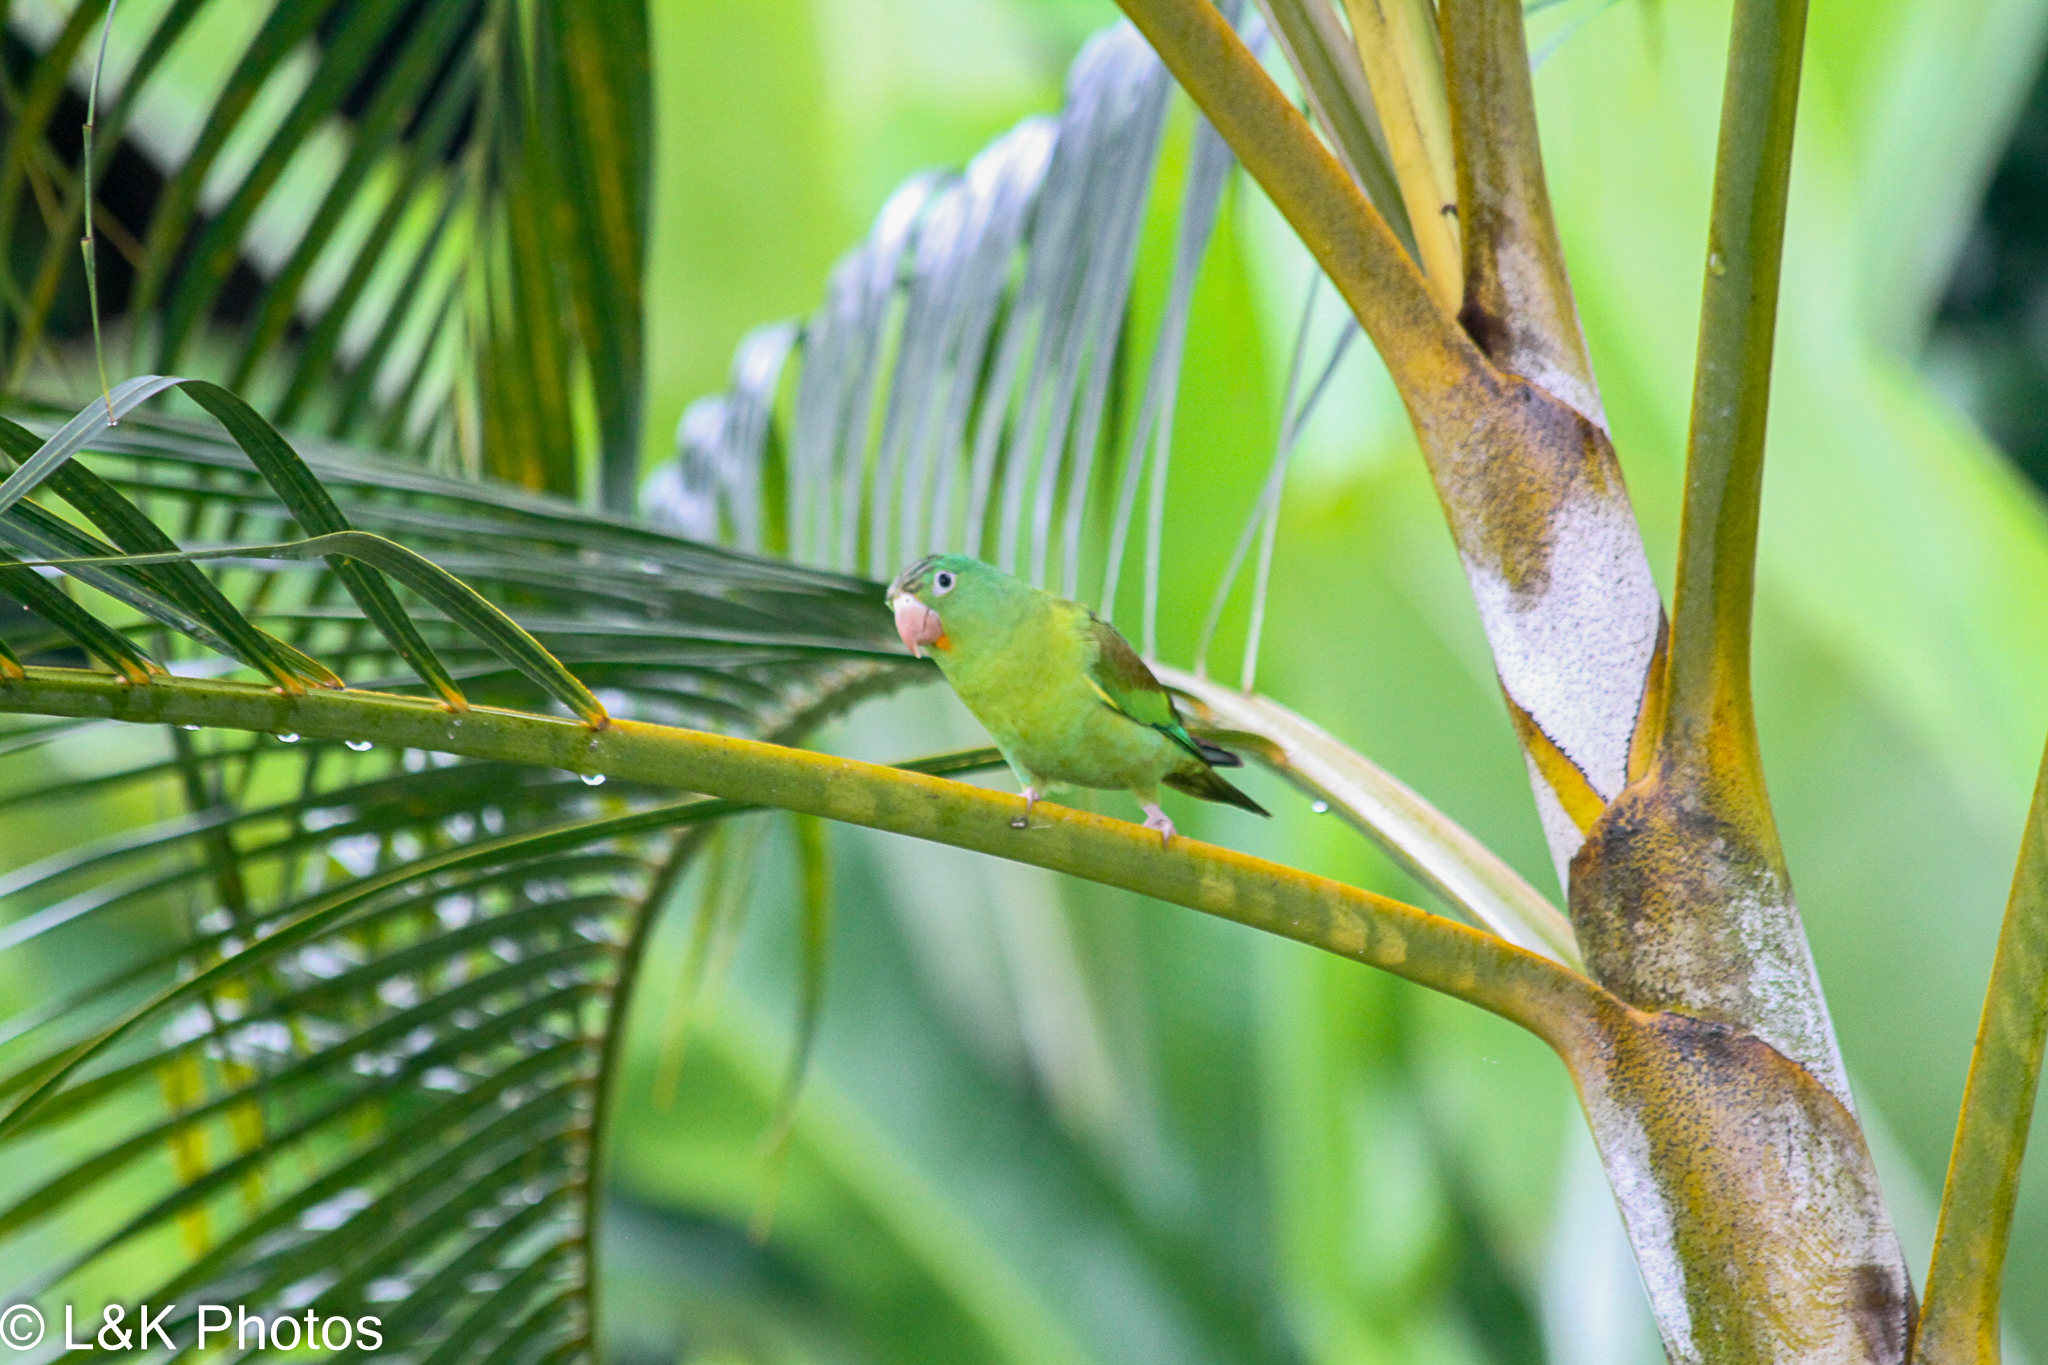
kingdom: Animalia
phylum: Chordata
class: Aves
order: Psittaciformes
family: Psittacidae
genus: Brotogeris
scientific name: Brotogeris jugularis
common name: Orange-chinned parakeet
